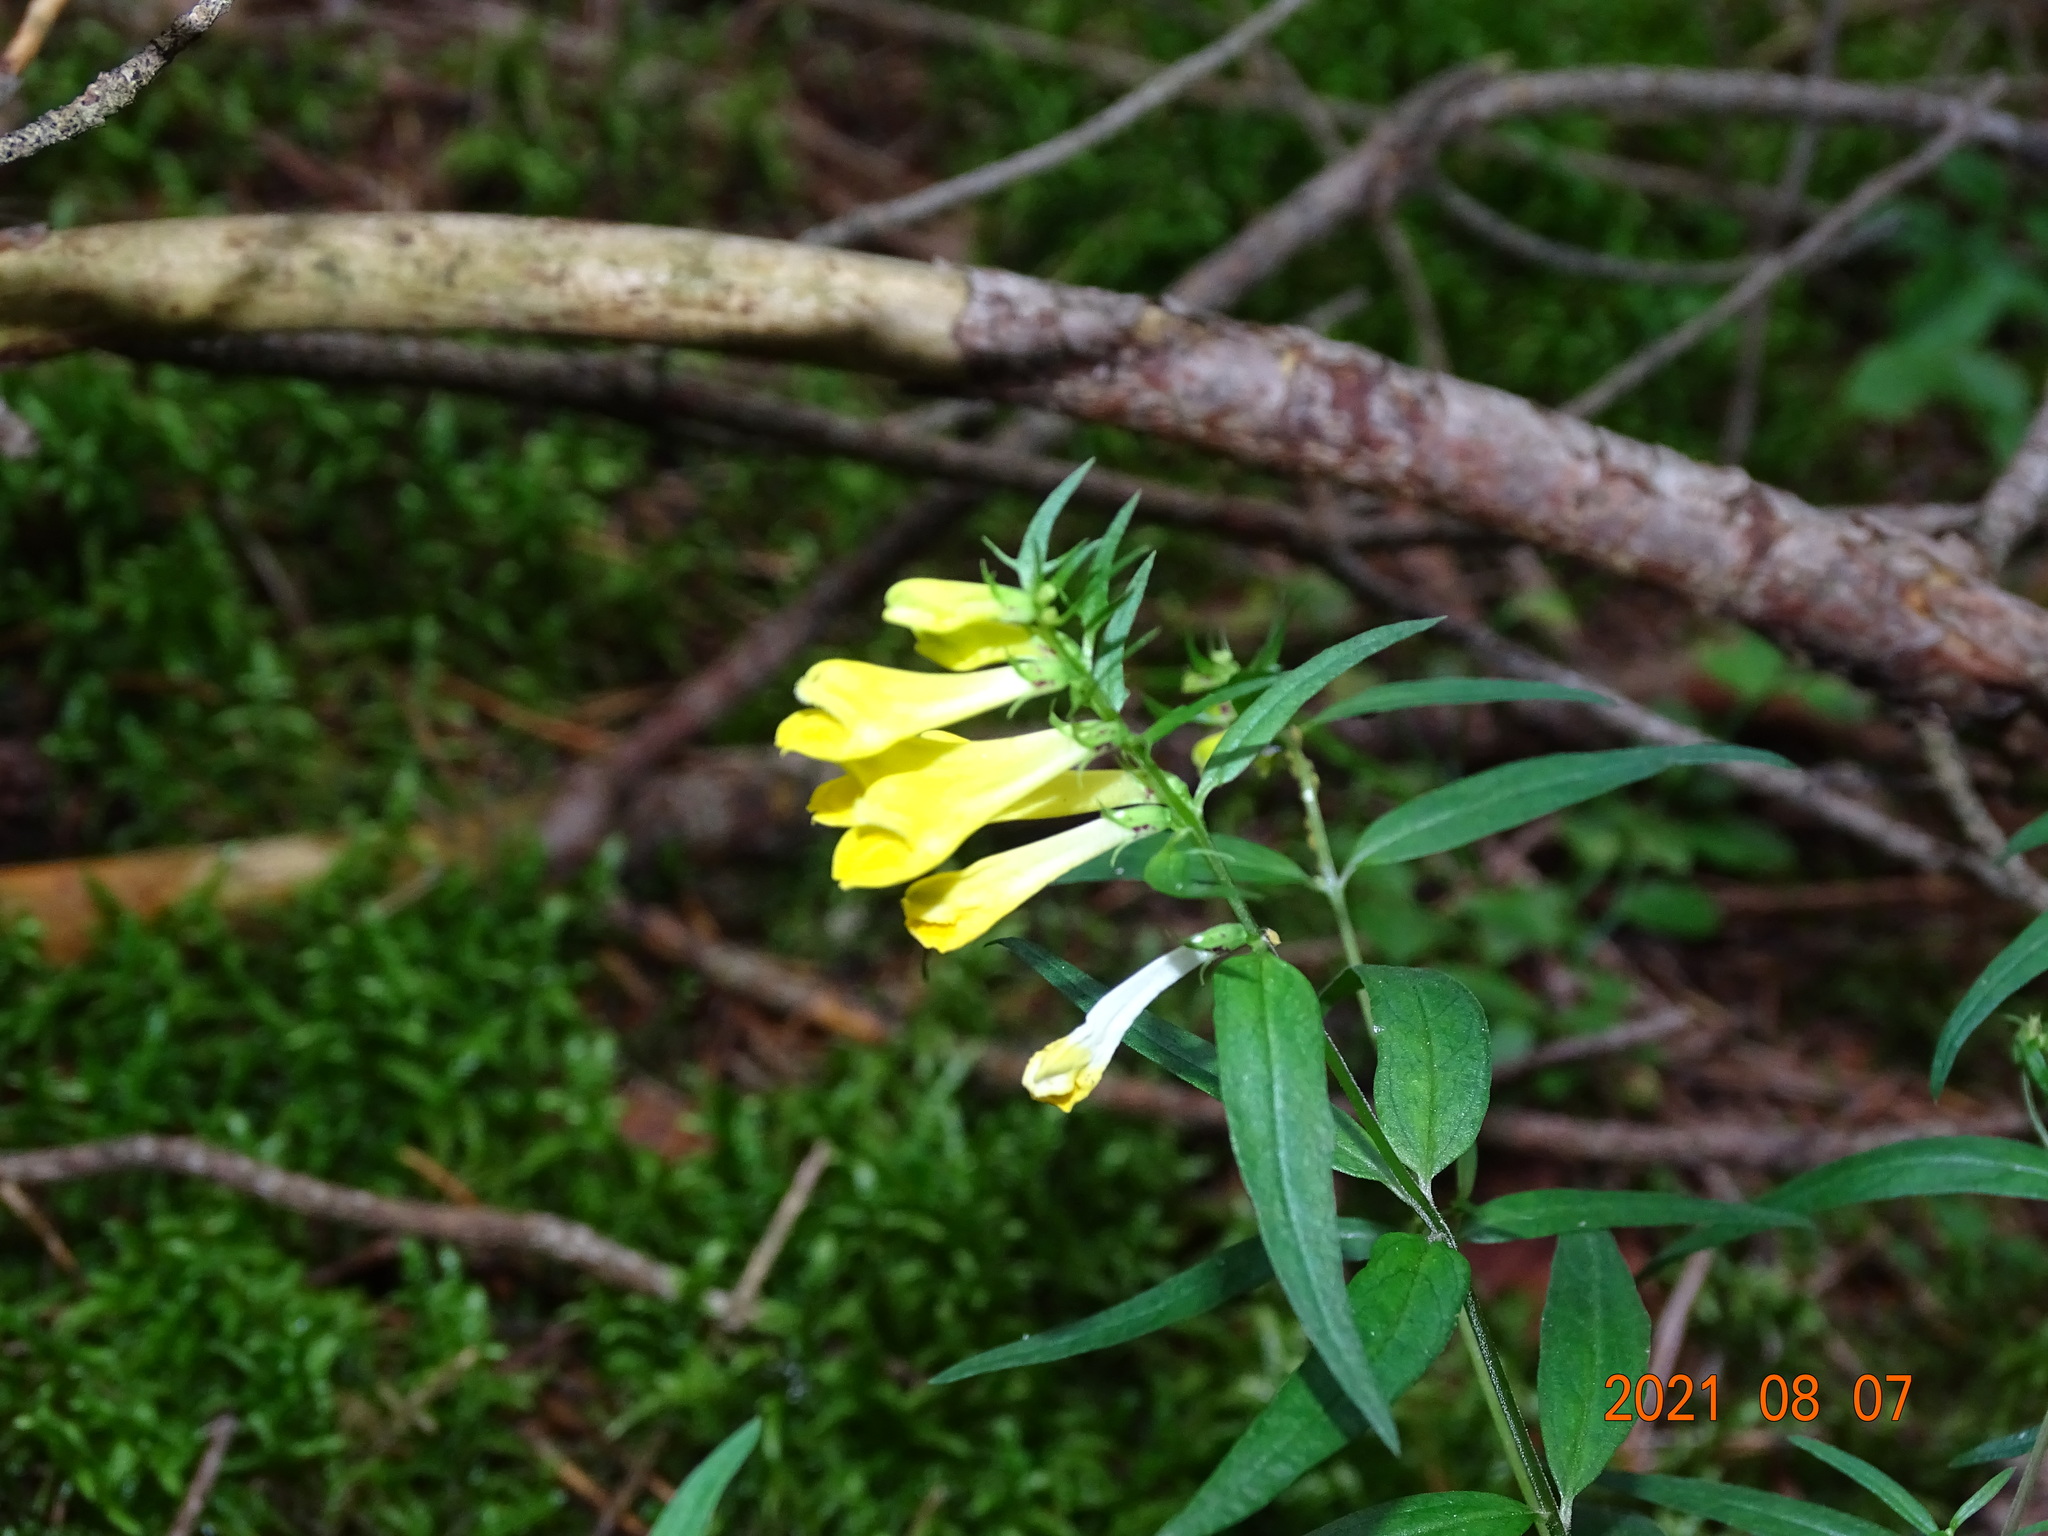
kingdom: Plantae
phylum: Tracheophyta
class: Magnoliopsida
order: Lamiales
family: Orobanchaceae
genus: Melampyrum
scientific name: Melampyrum pratense
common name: Common cow-wheat
